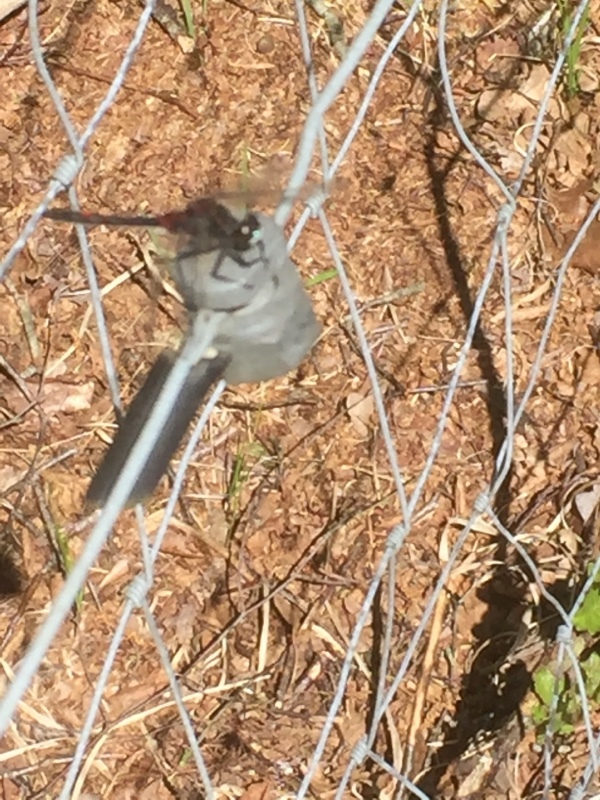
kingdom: Animalia
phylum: Arthropoda
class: Insecta
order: Odonata
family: Libellulidae
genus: Leucorrhinia
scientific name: Leucorrhinia rubicunda
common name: Ruby whiteface
